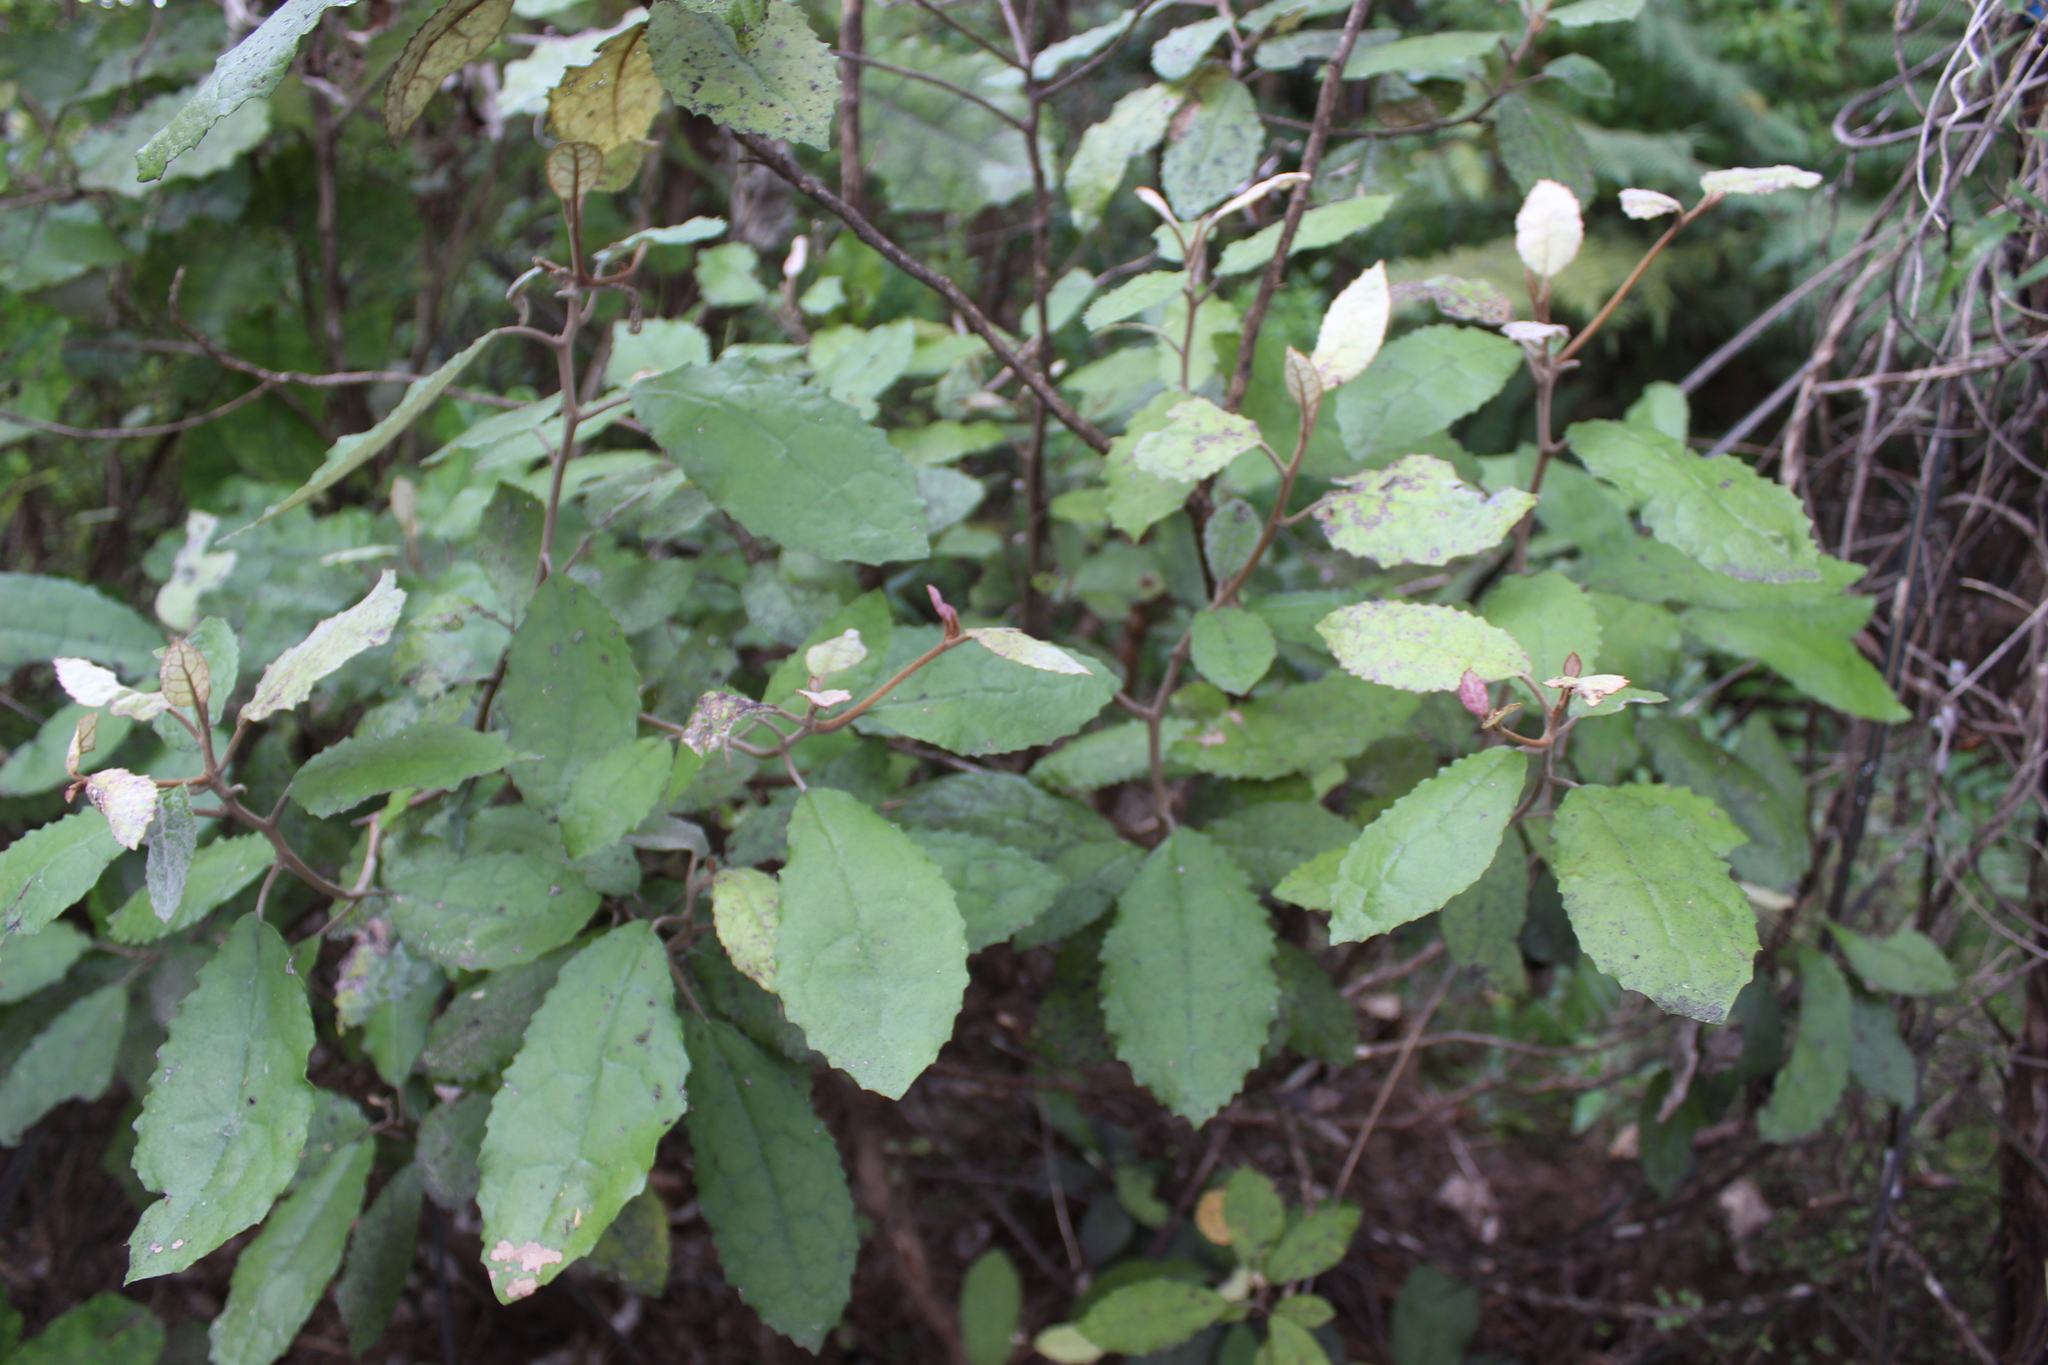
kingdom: Plantae
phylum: Tracheophyta
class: Magnoliopsida
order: Asterales
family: Asteraceae
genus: Olearia
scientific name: Olearia rani
